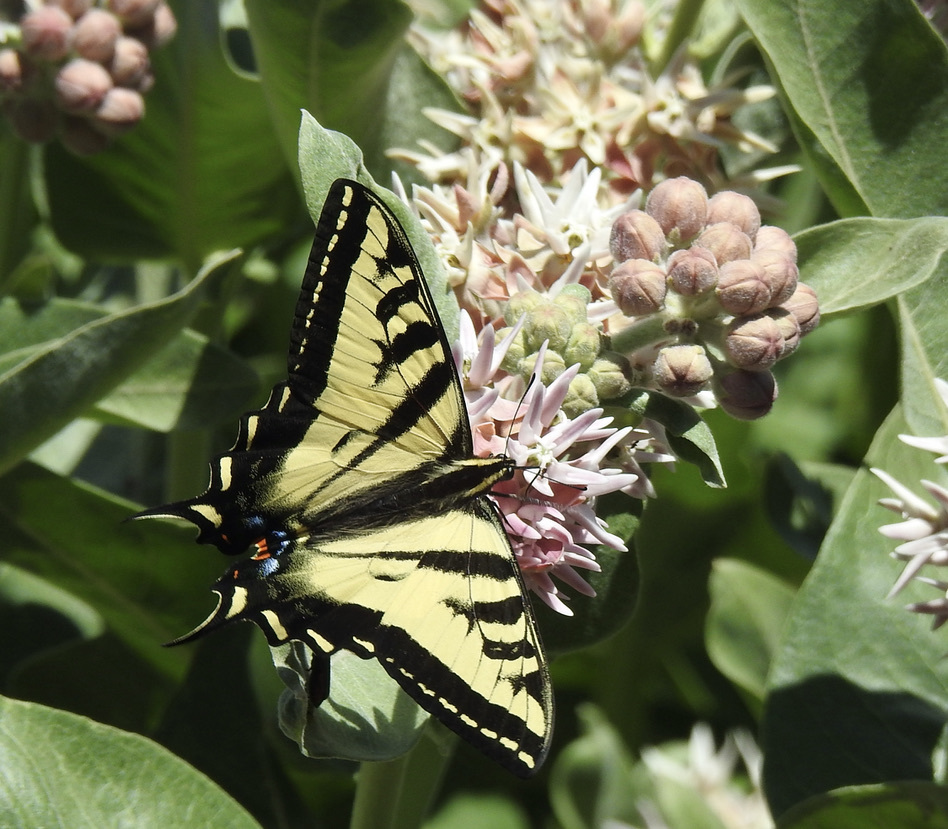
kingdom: Animalia
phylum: Arthropoda
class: Insecta
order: Lepidoptera
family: Papilionidae
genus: Papilio
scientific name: Papilio rutulus
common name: Western tiger swallowtail
